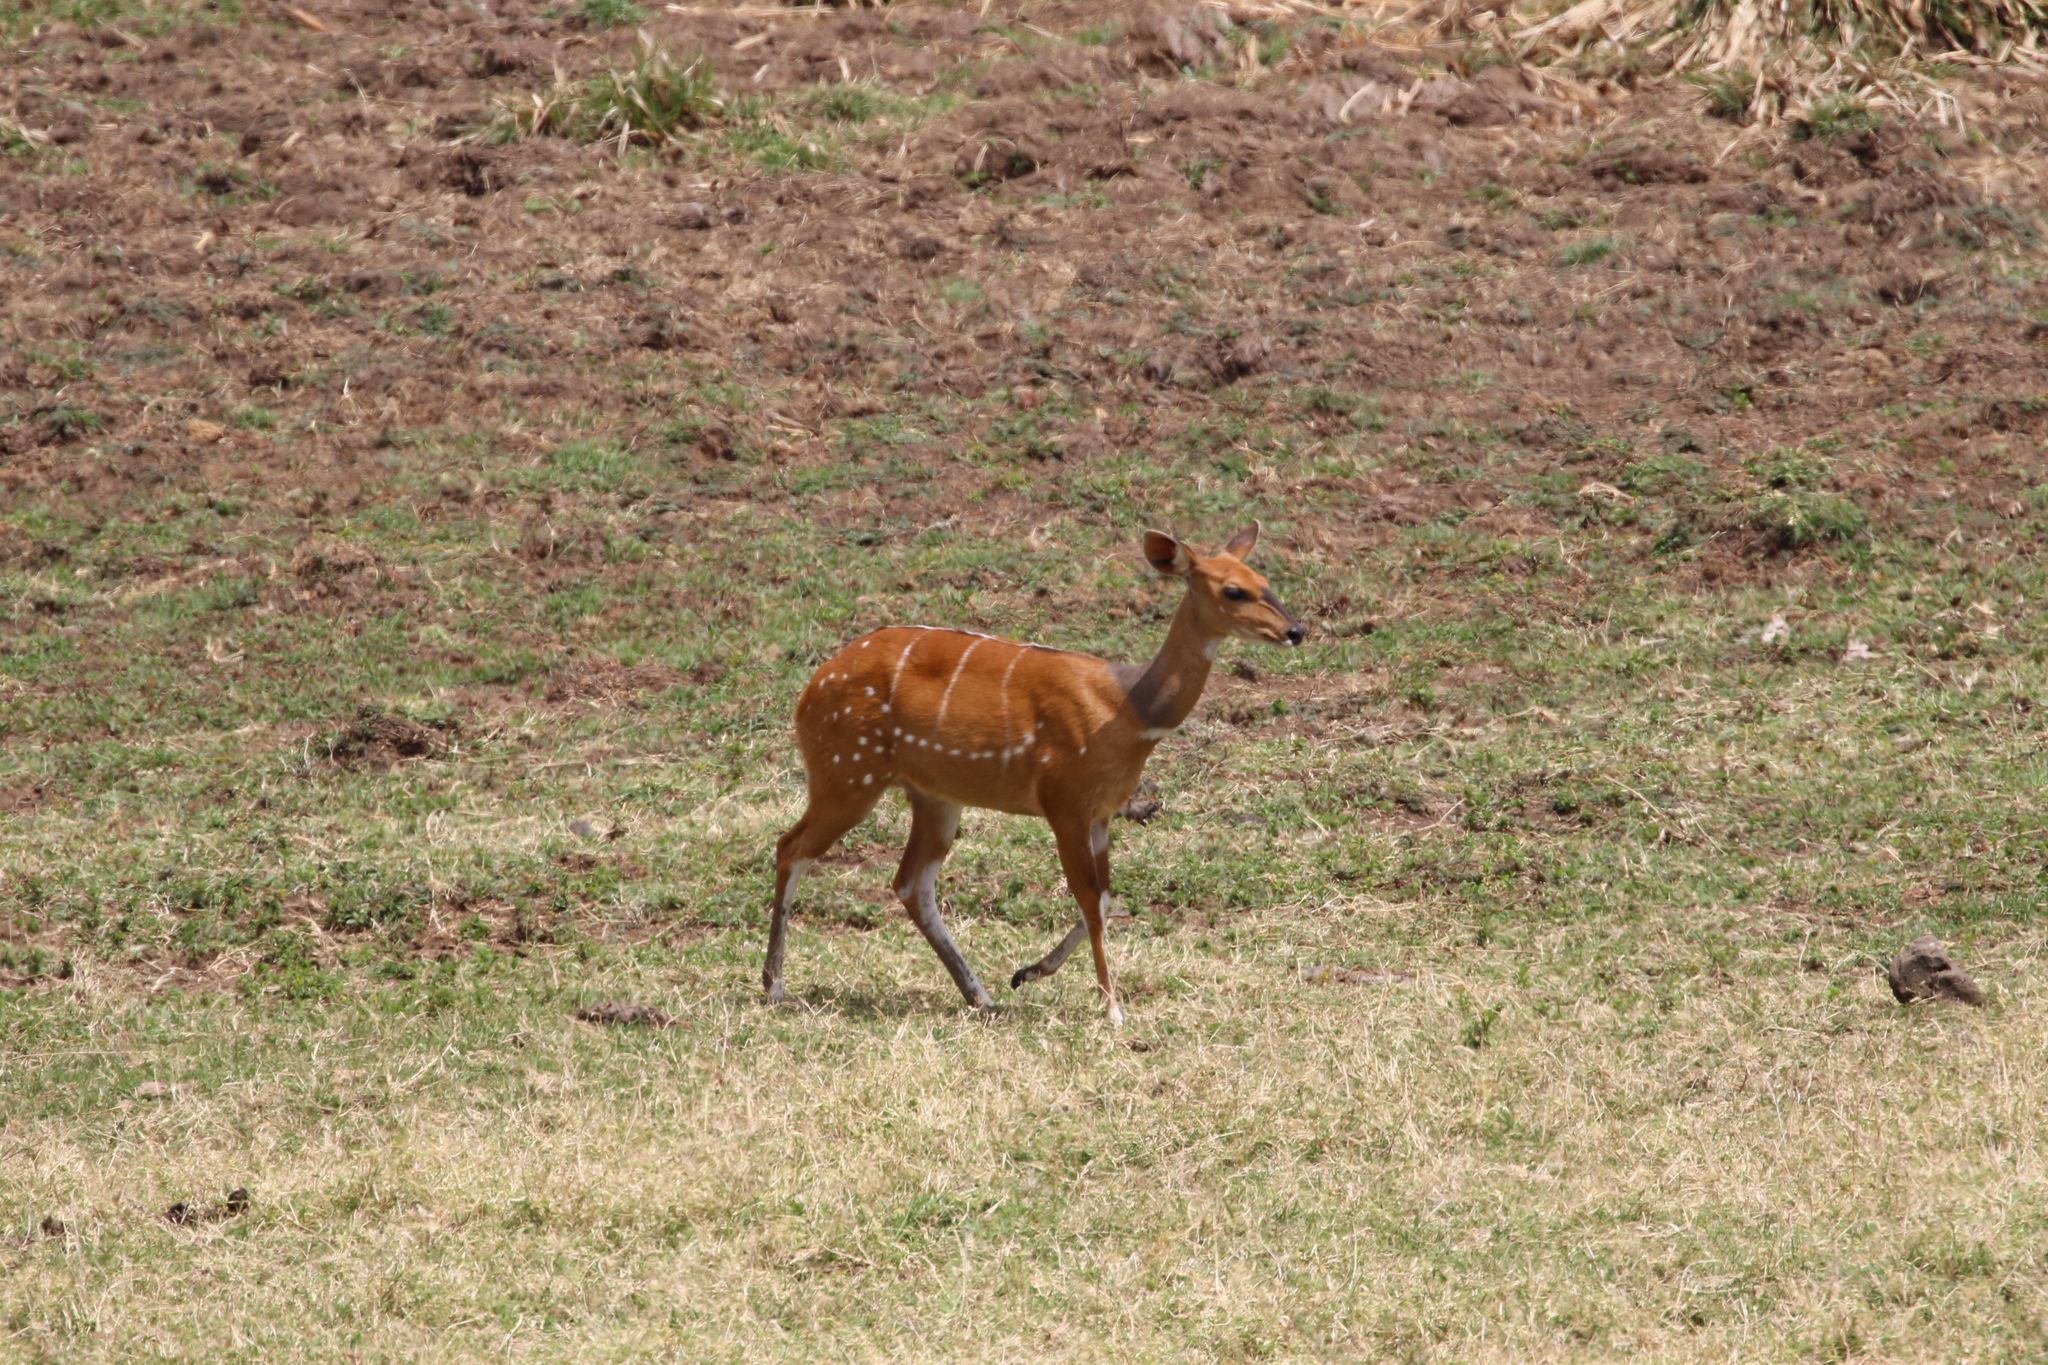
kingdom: Animalia
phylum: Chordata
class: Mammalia
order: Artiodactyla
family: Bovidae
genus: Tragelaphus
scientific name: Tragelaphus scriptus
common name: Bushbuck
